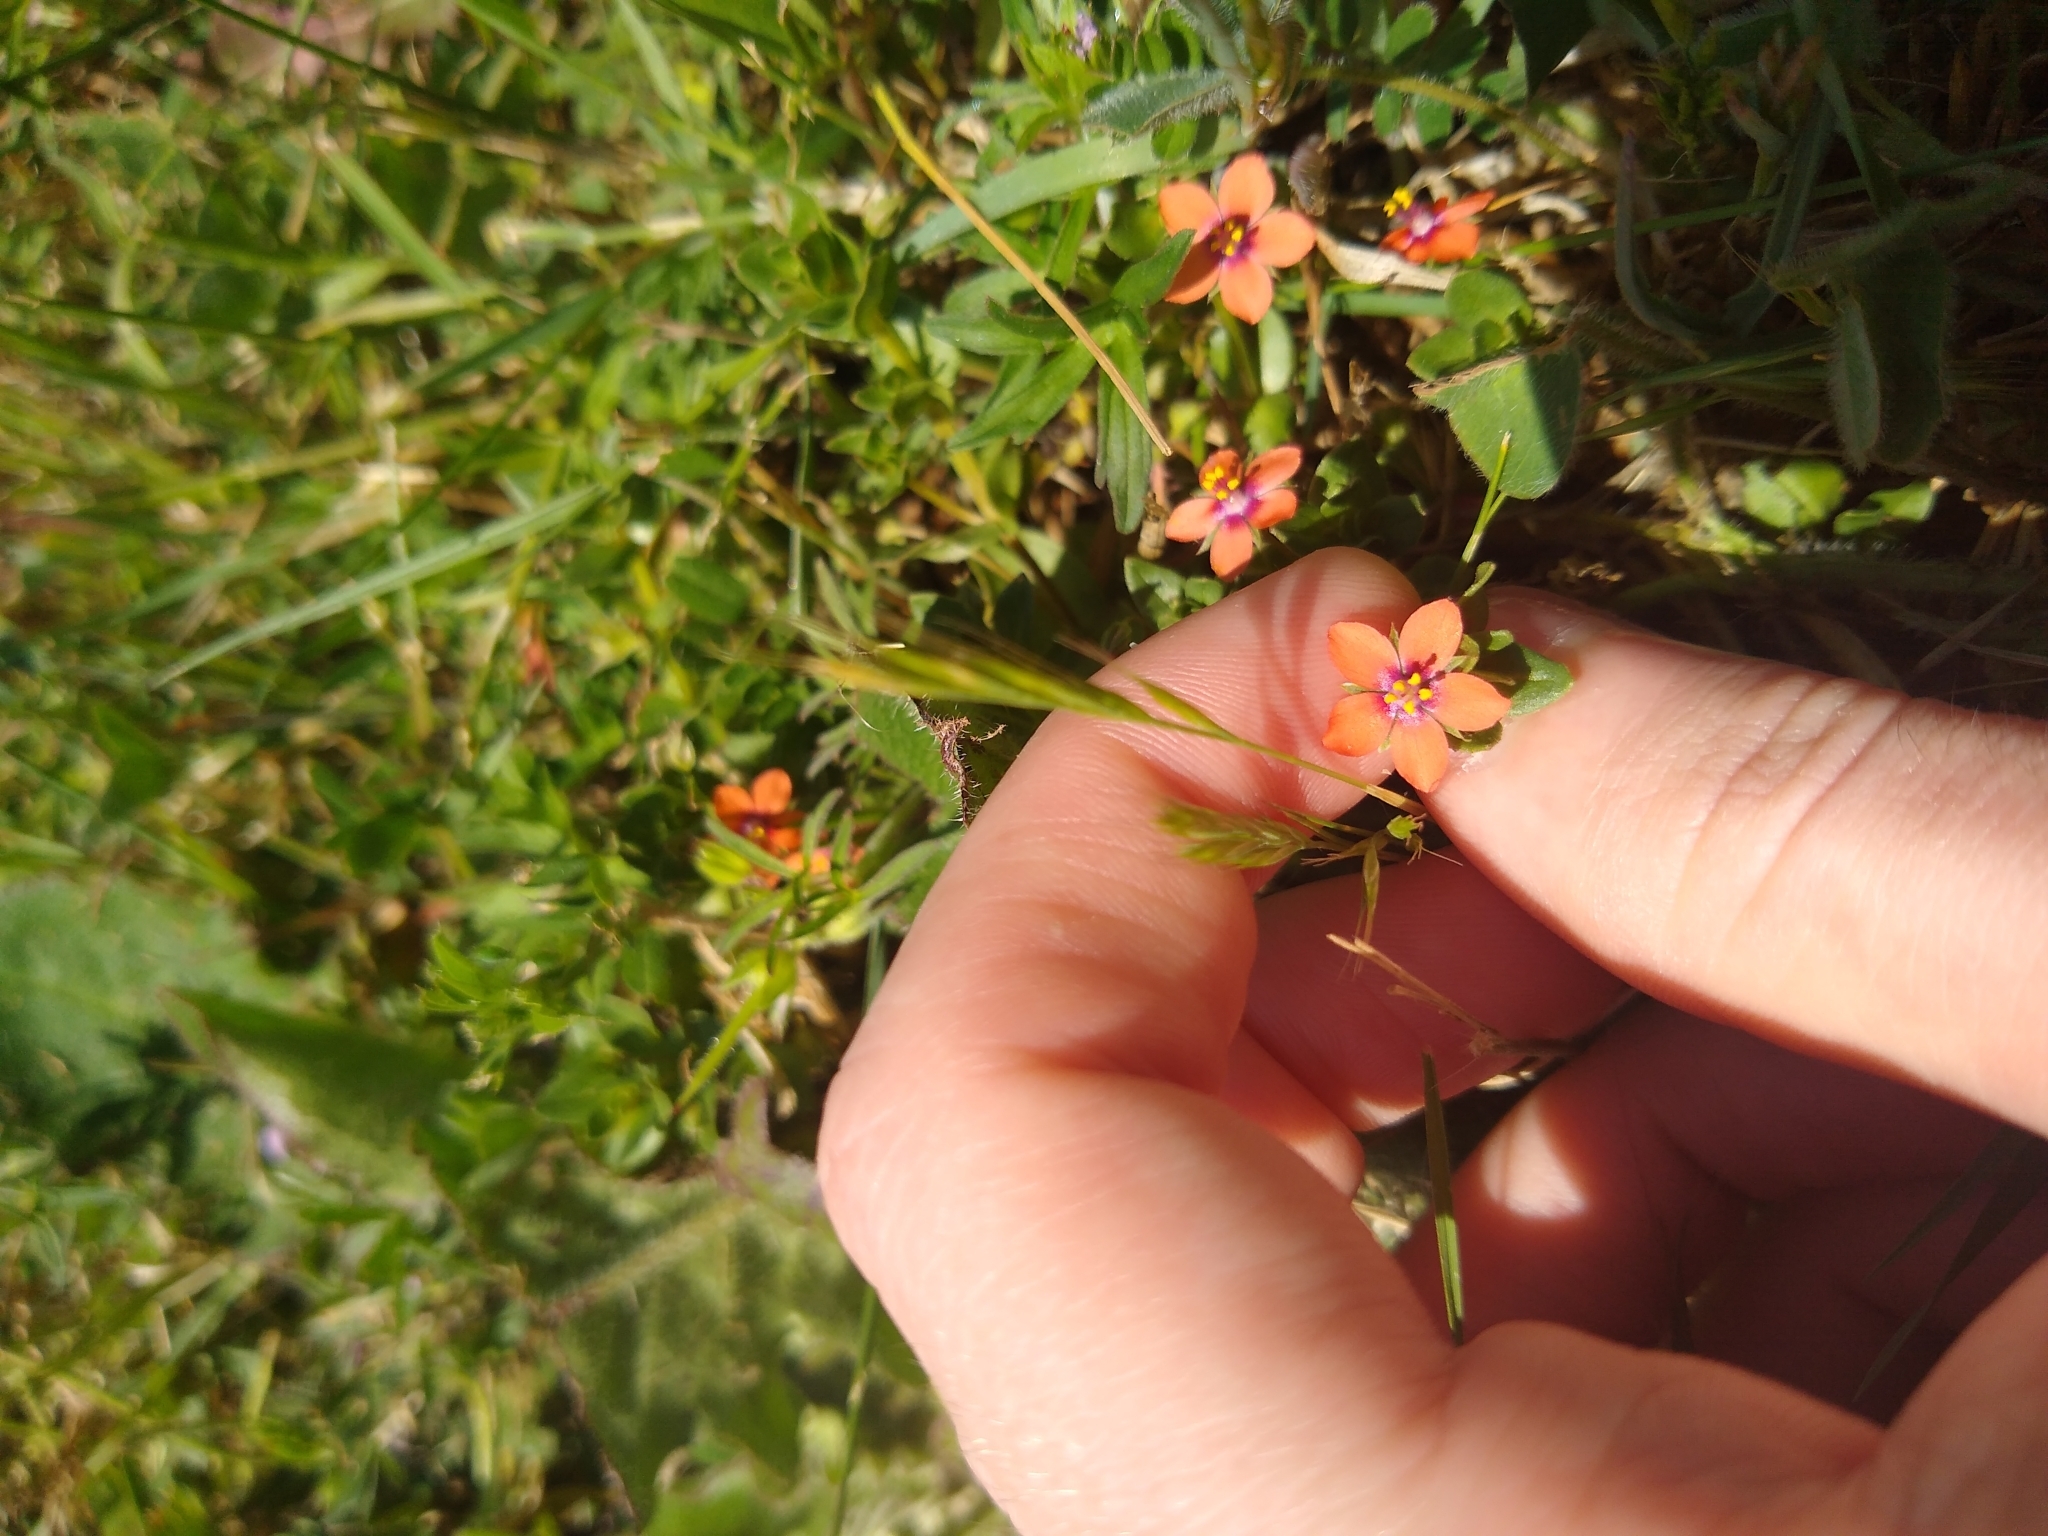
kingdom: Plantae
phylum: Tracheophyta
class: Magnoliopsida
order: Ericales
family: Primulaceae
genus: Lysimachia
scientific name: Lysimachia arvensis
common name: Scarlet pimpernel
